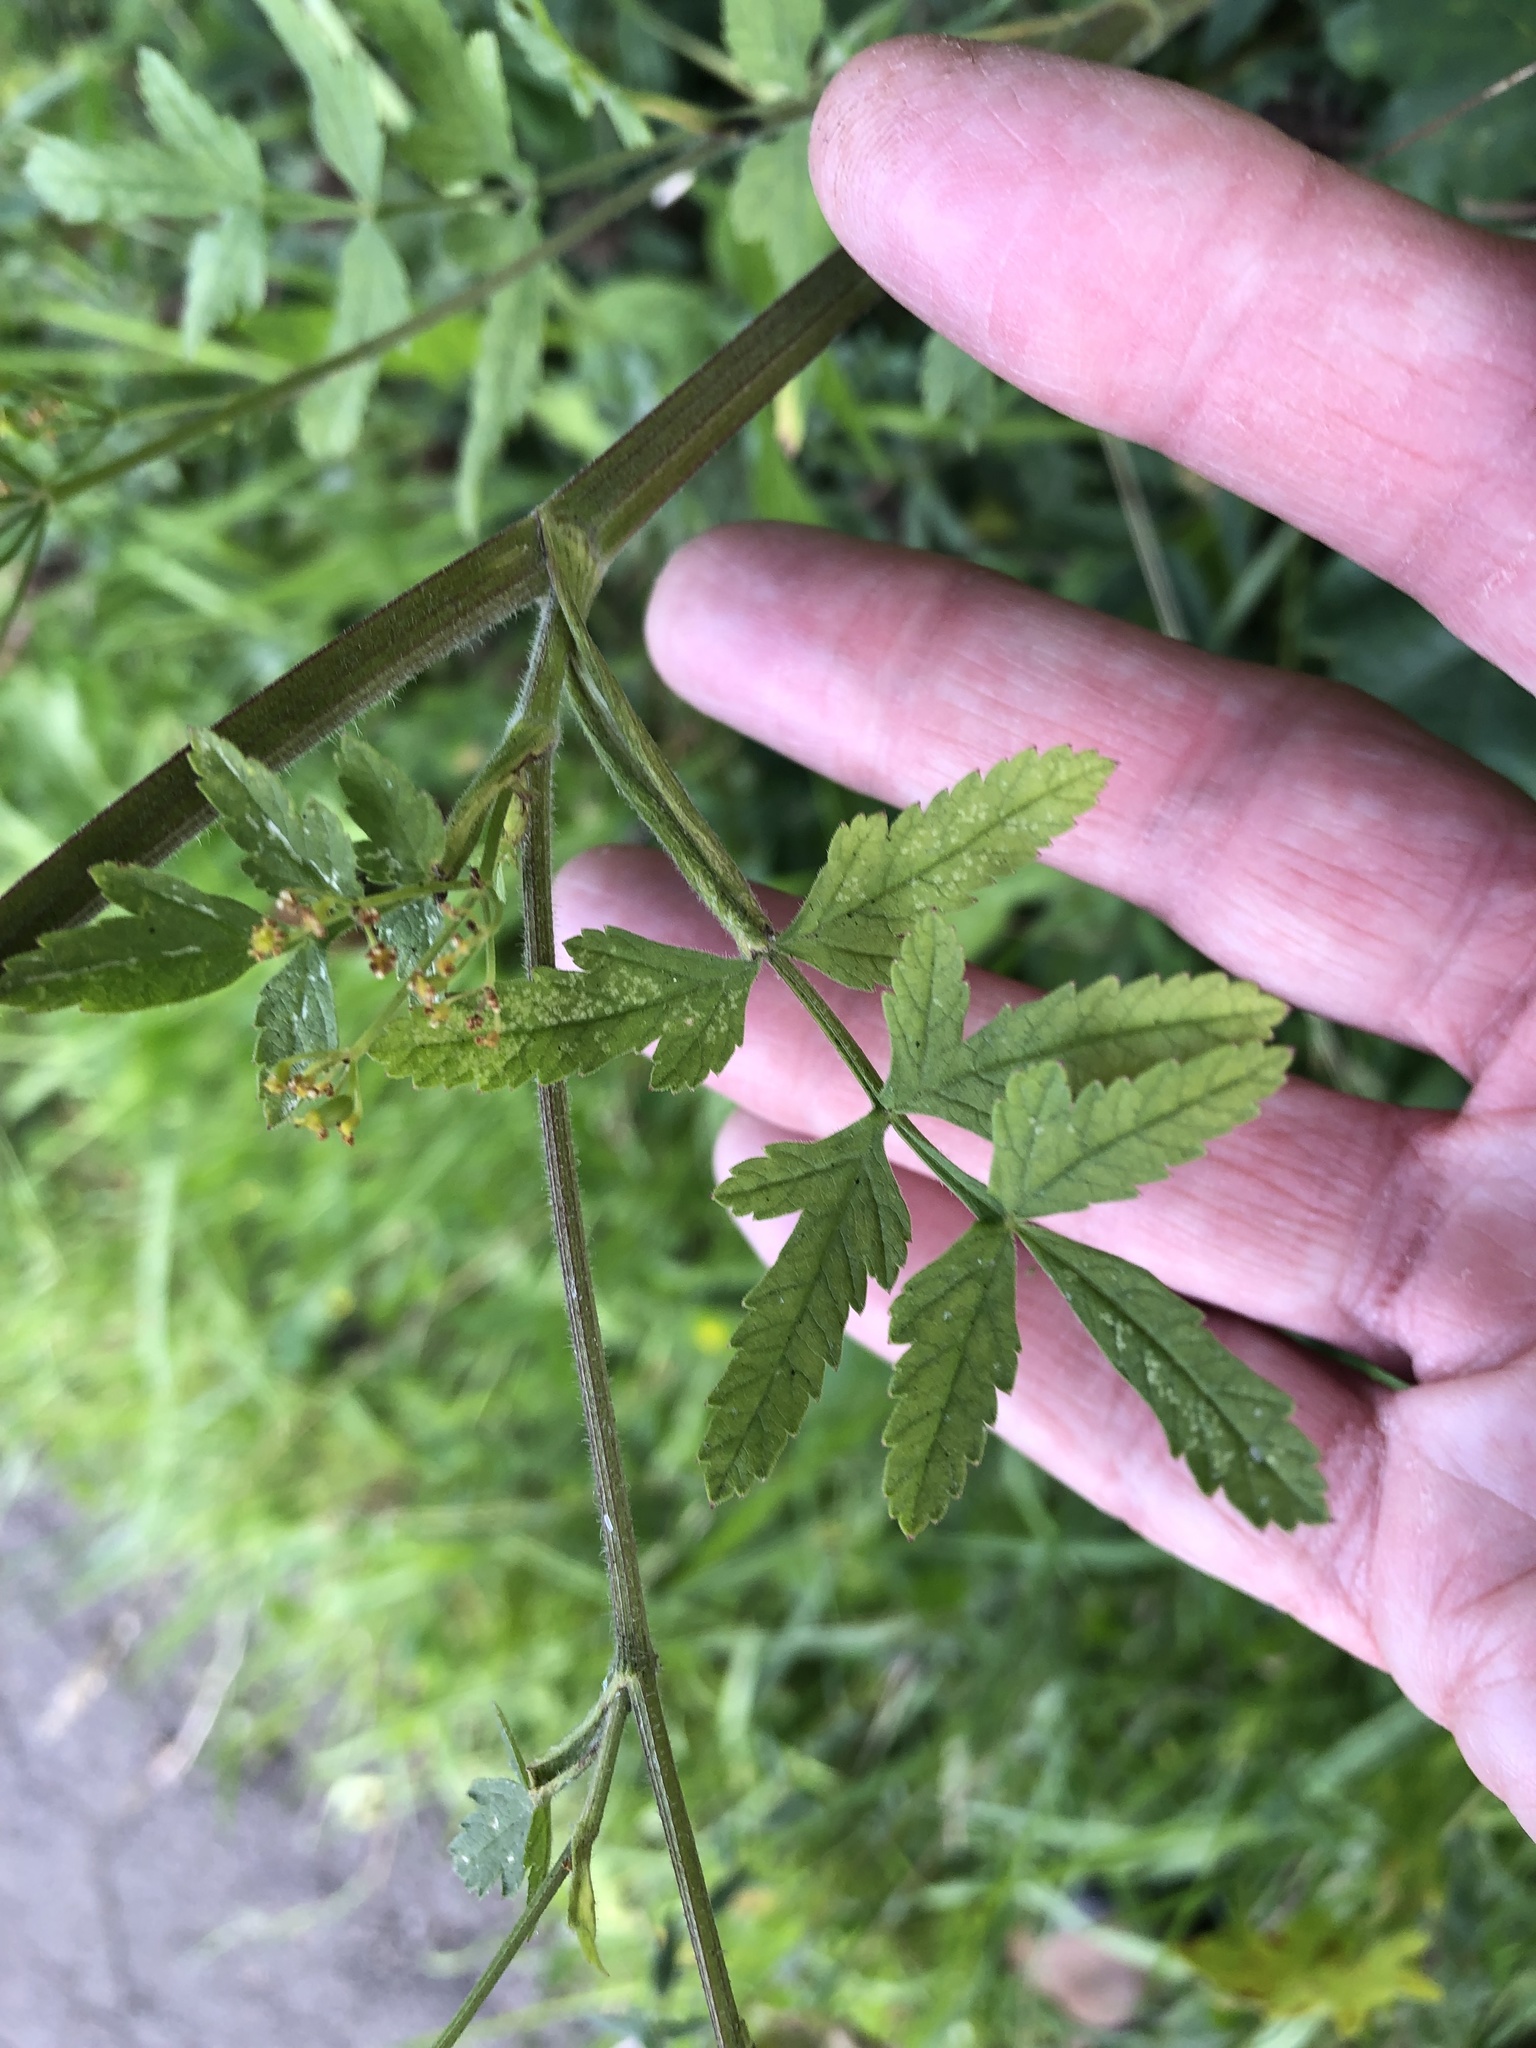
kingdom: Plantae
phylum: Tracheophyta
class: Magnoliopsida
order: Apiales
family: Apiaceae
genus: Pastinaca
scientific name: Pastinaca sativa
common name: Wild parsnip
